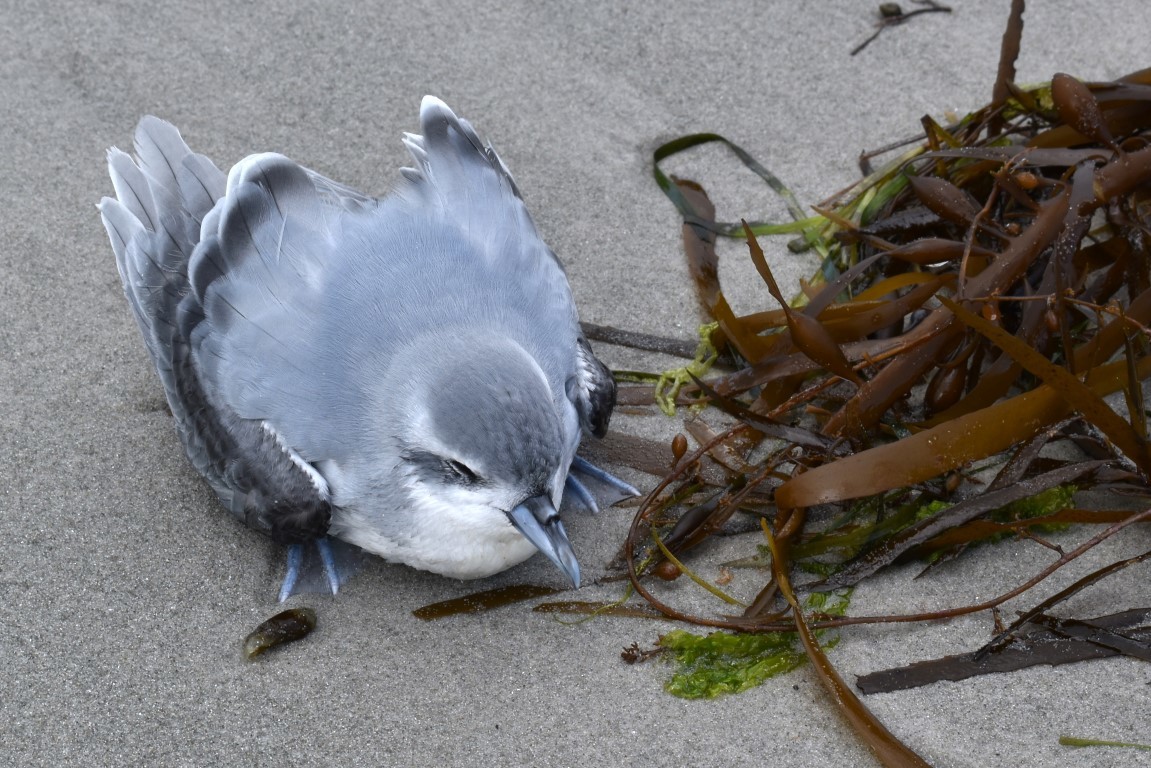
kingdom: Animalia
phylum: Chordata
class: Aves
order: Procellariiformes
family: Procellariidae
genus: Pachyptila
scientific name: Pachyptila turtur
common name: Fairy prion
